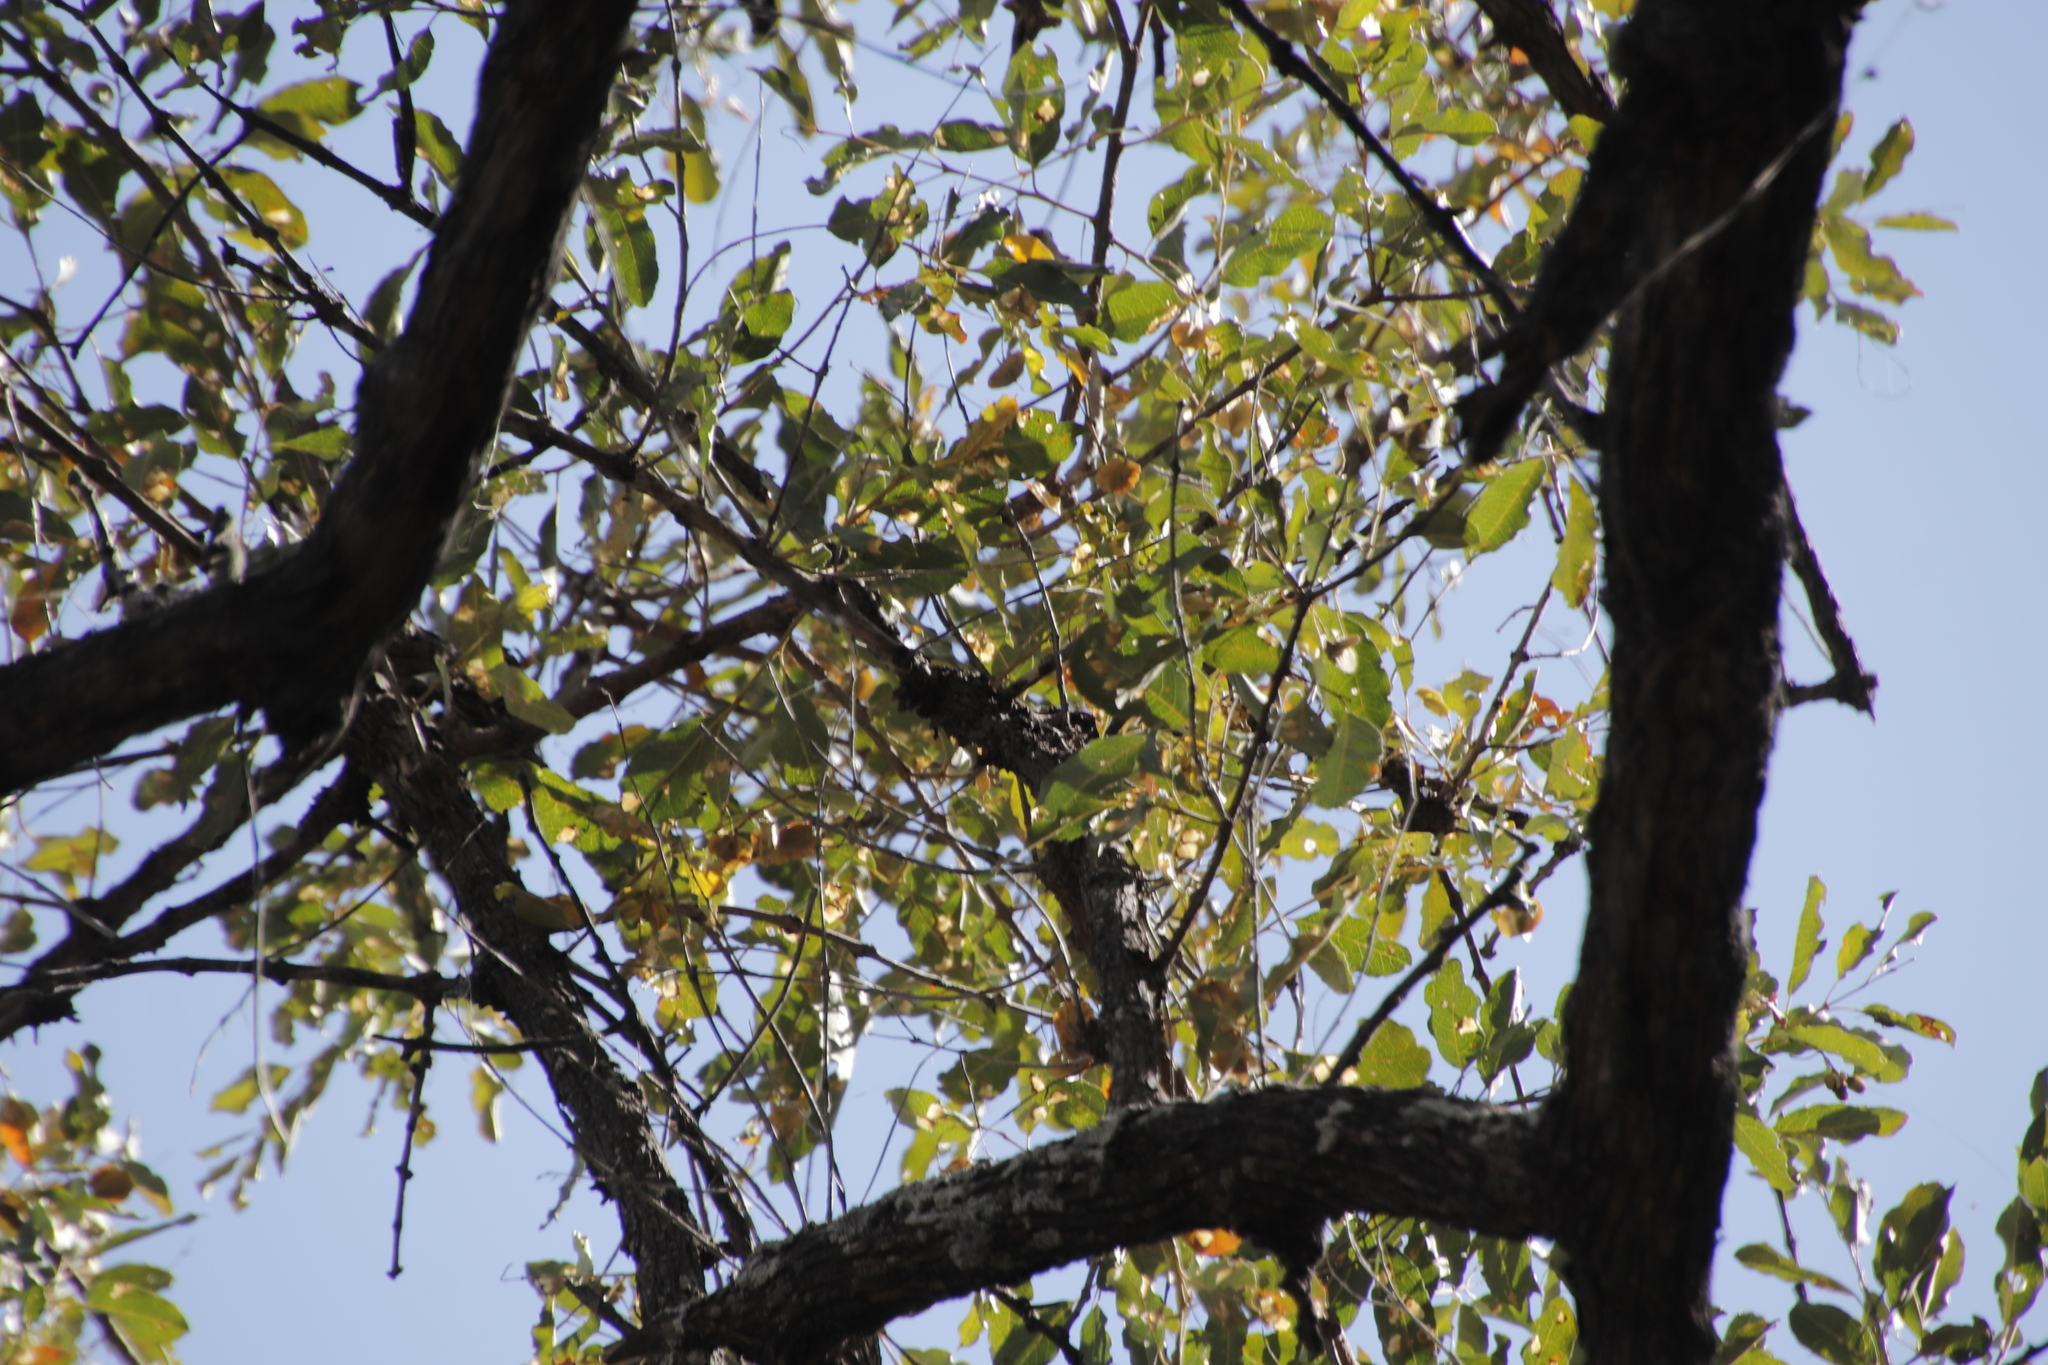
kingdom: Plantae
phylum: Tracheophyta
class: Magnoliopsida
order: Myrtales
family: Combretaceae
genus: Combretum
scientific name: Combretum imberbe
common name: Leadwood
